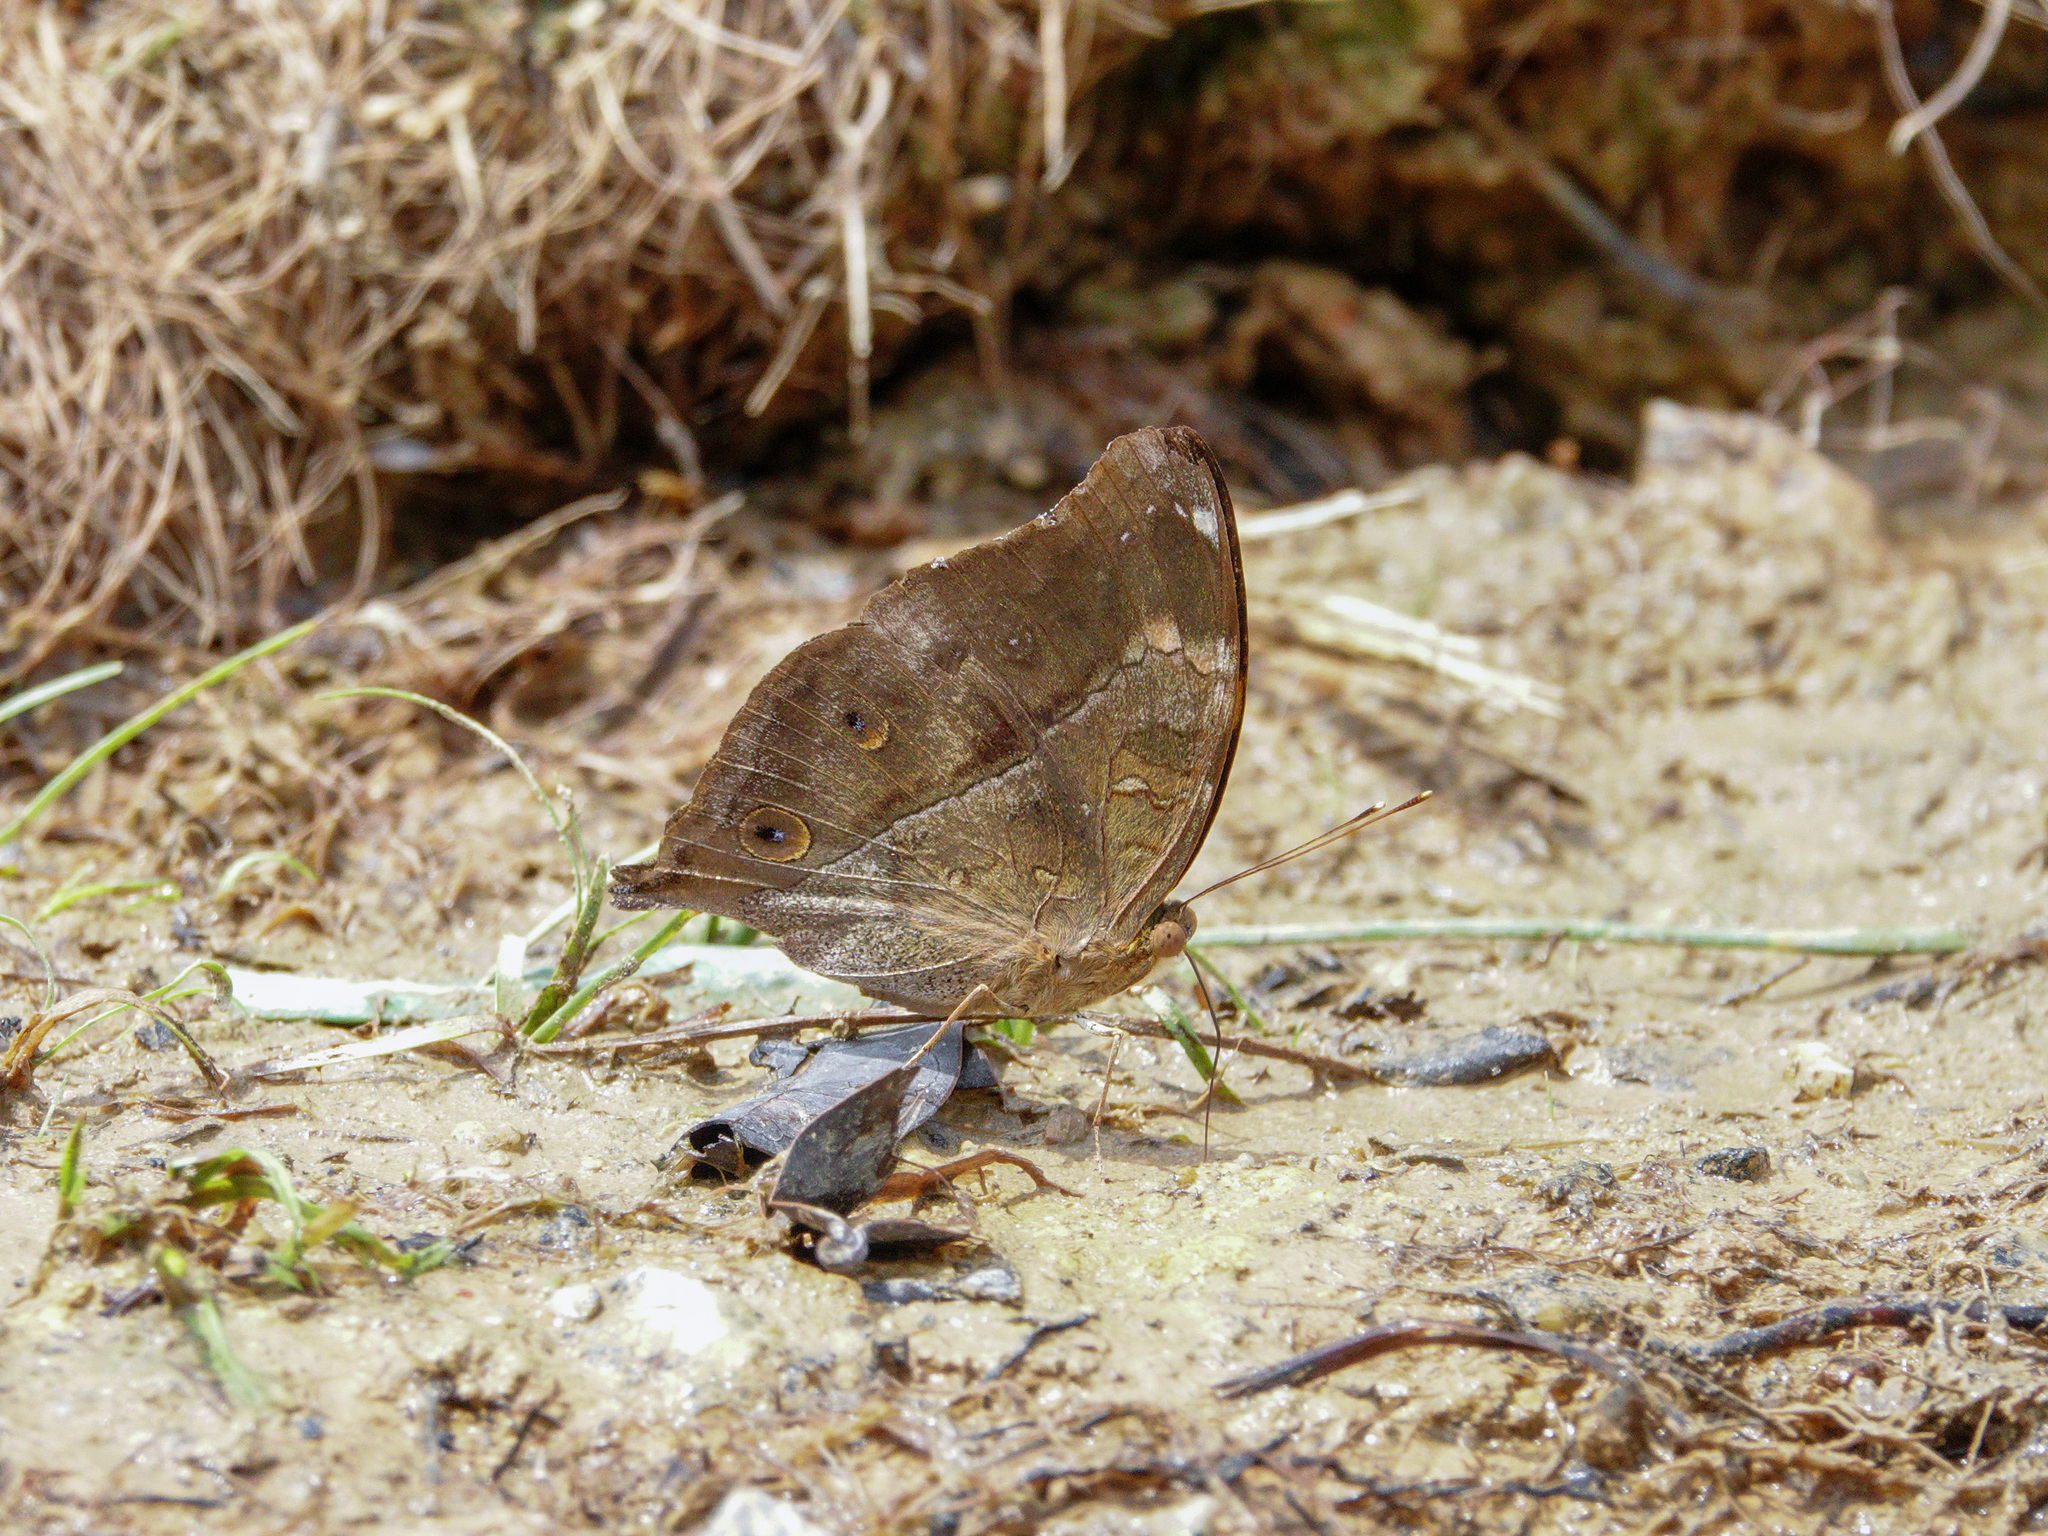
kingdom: Animalia
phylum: Arthropoda
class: Insecta
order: Lepidoptera
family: Nymphalidae
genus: Doleschallia
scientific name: Doleschallia bisaltide
